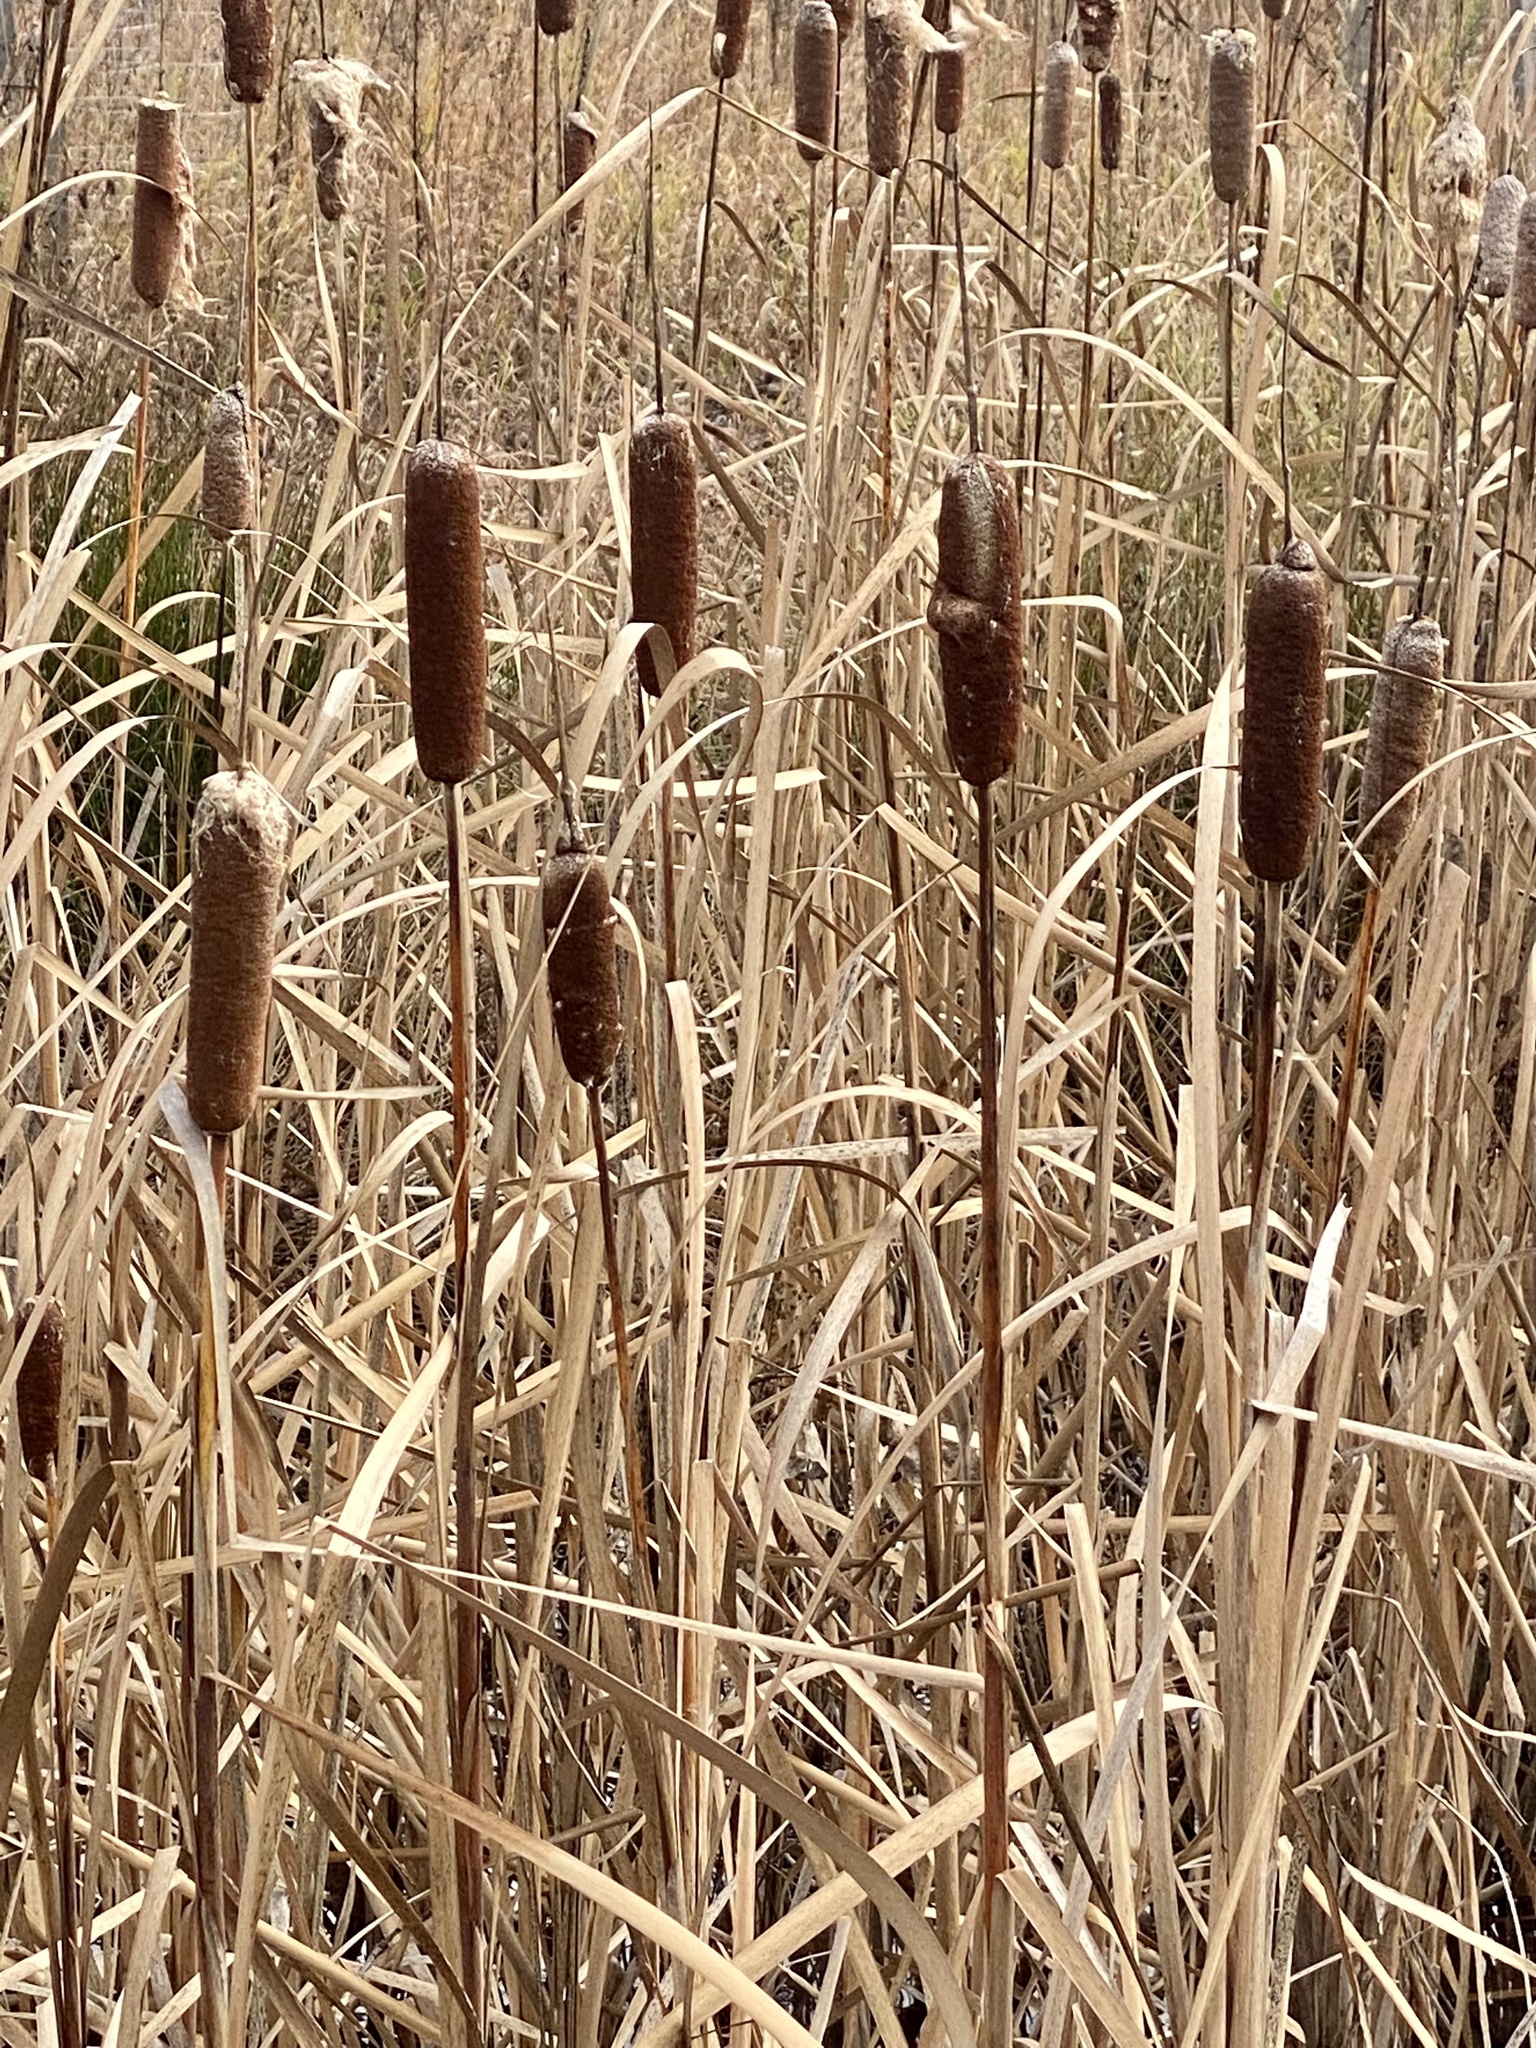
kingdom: Plantae
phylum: Tracheophyta
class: Liliopsida
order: Poales
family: Typhaceae
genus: Typha
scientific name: Typha
